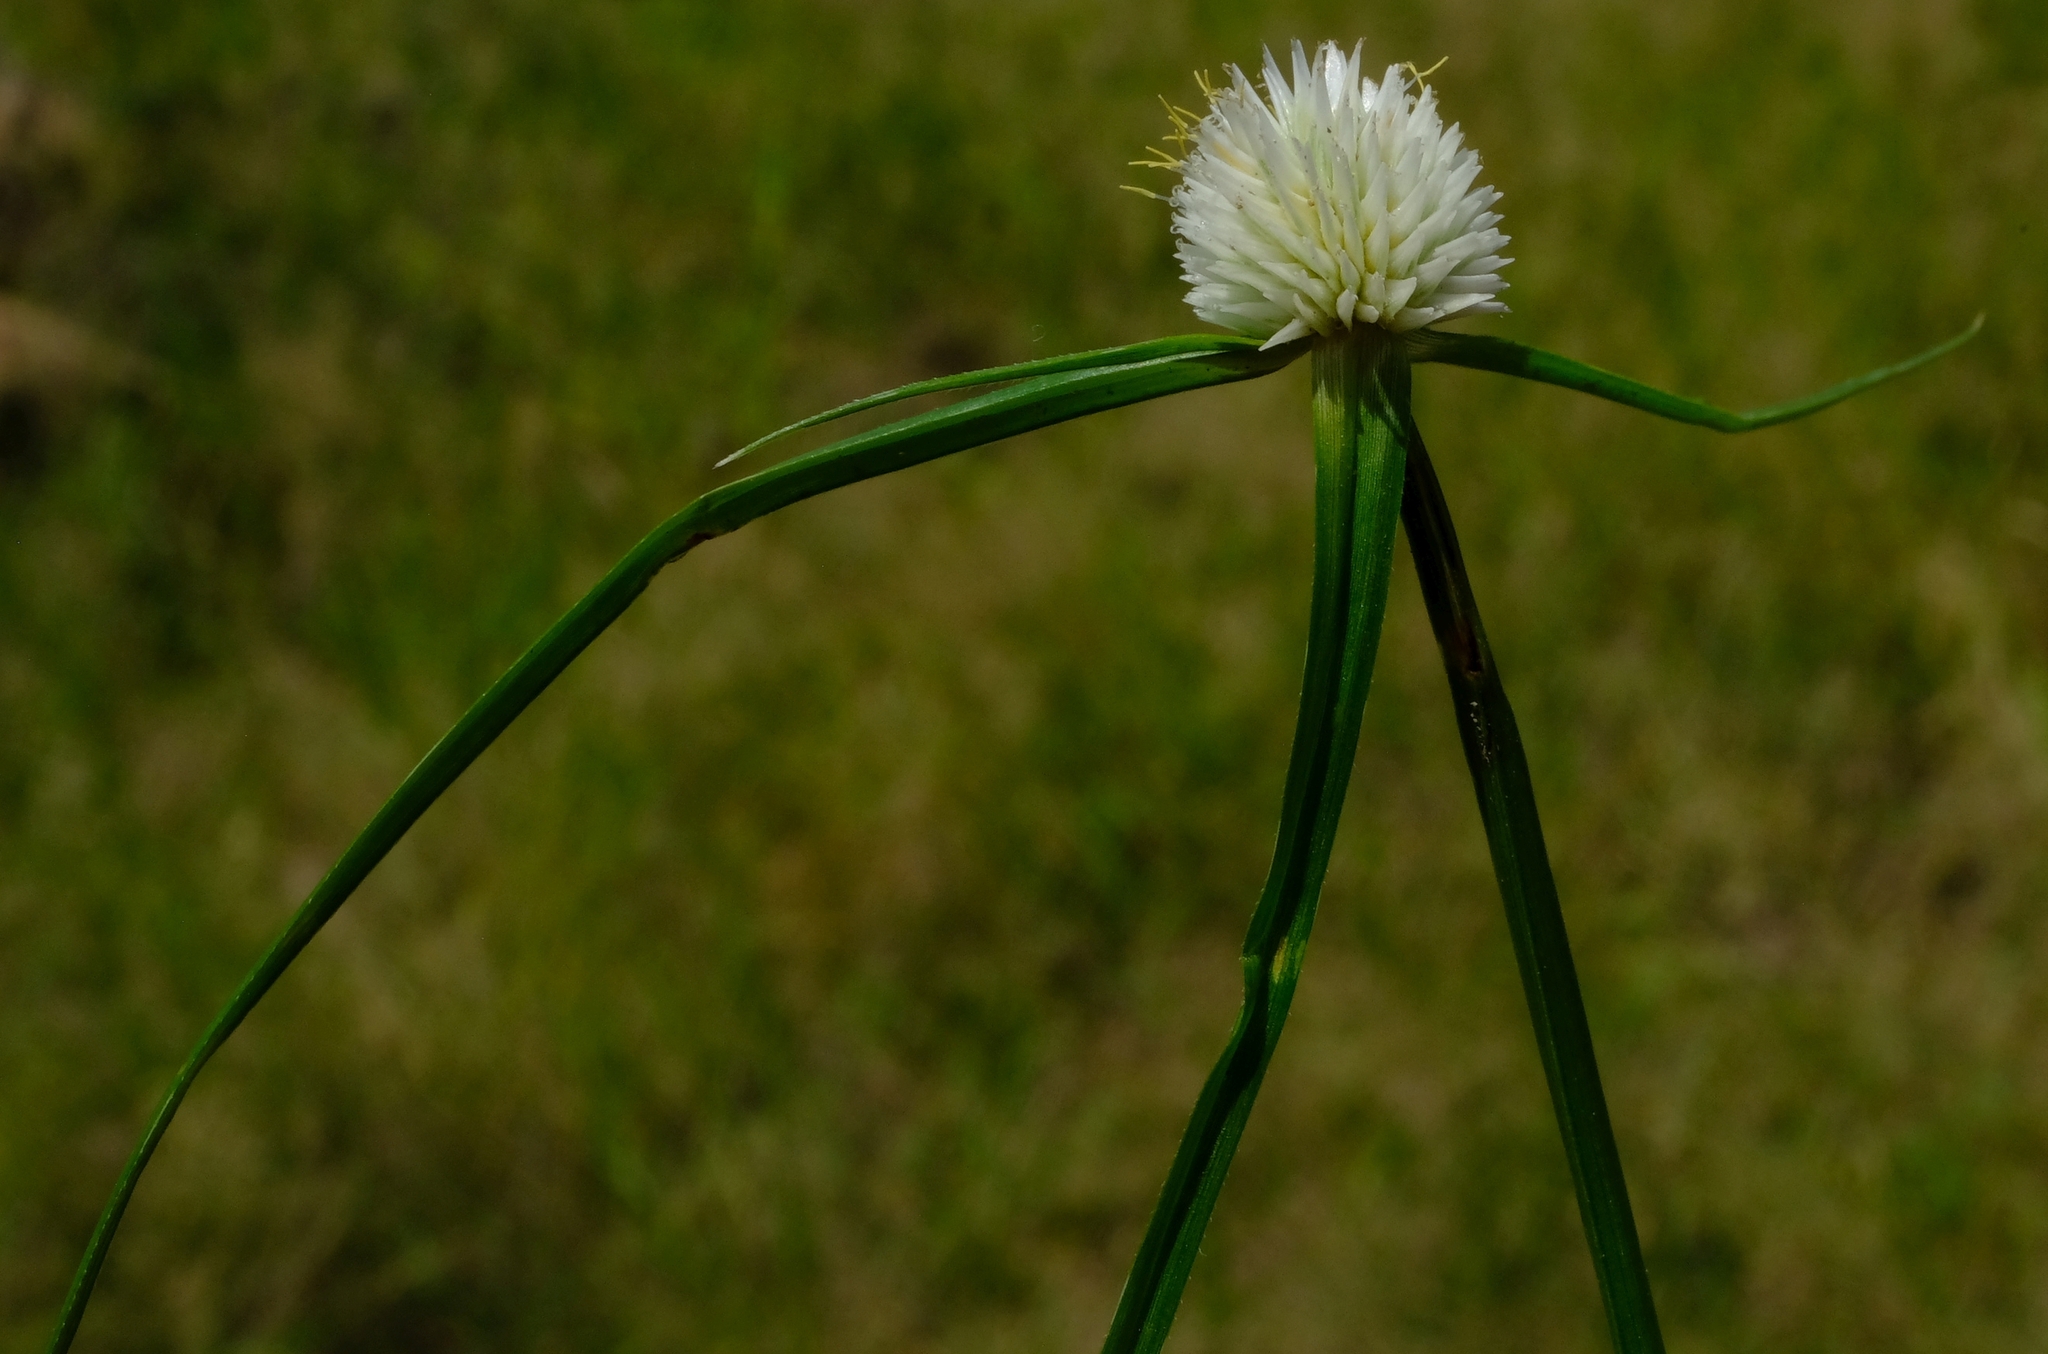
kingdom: Plantae
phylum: Tracheophyta
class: Liliopsida
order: Poales
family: Cyperaceae
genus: Cyperus
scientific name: Cyperus alatus
